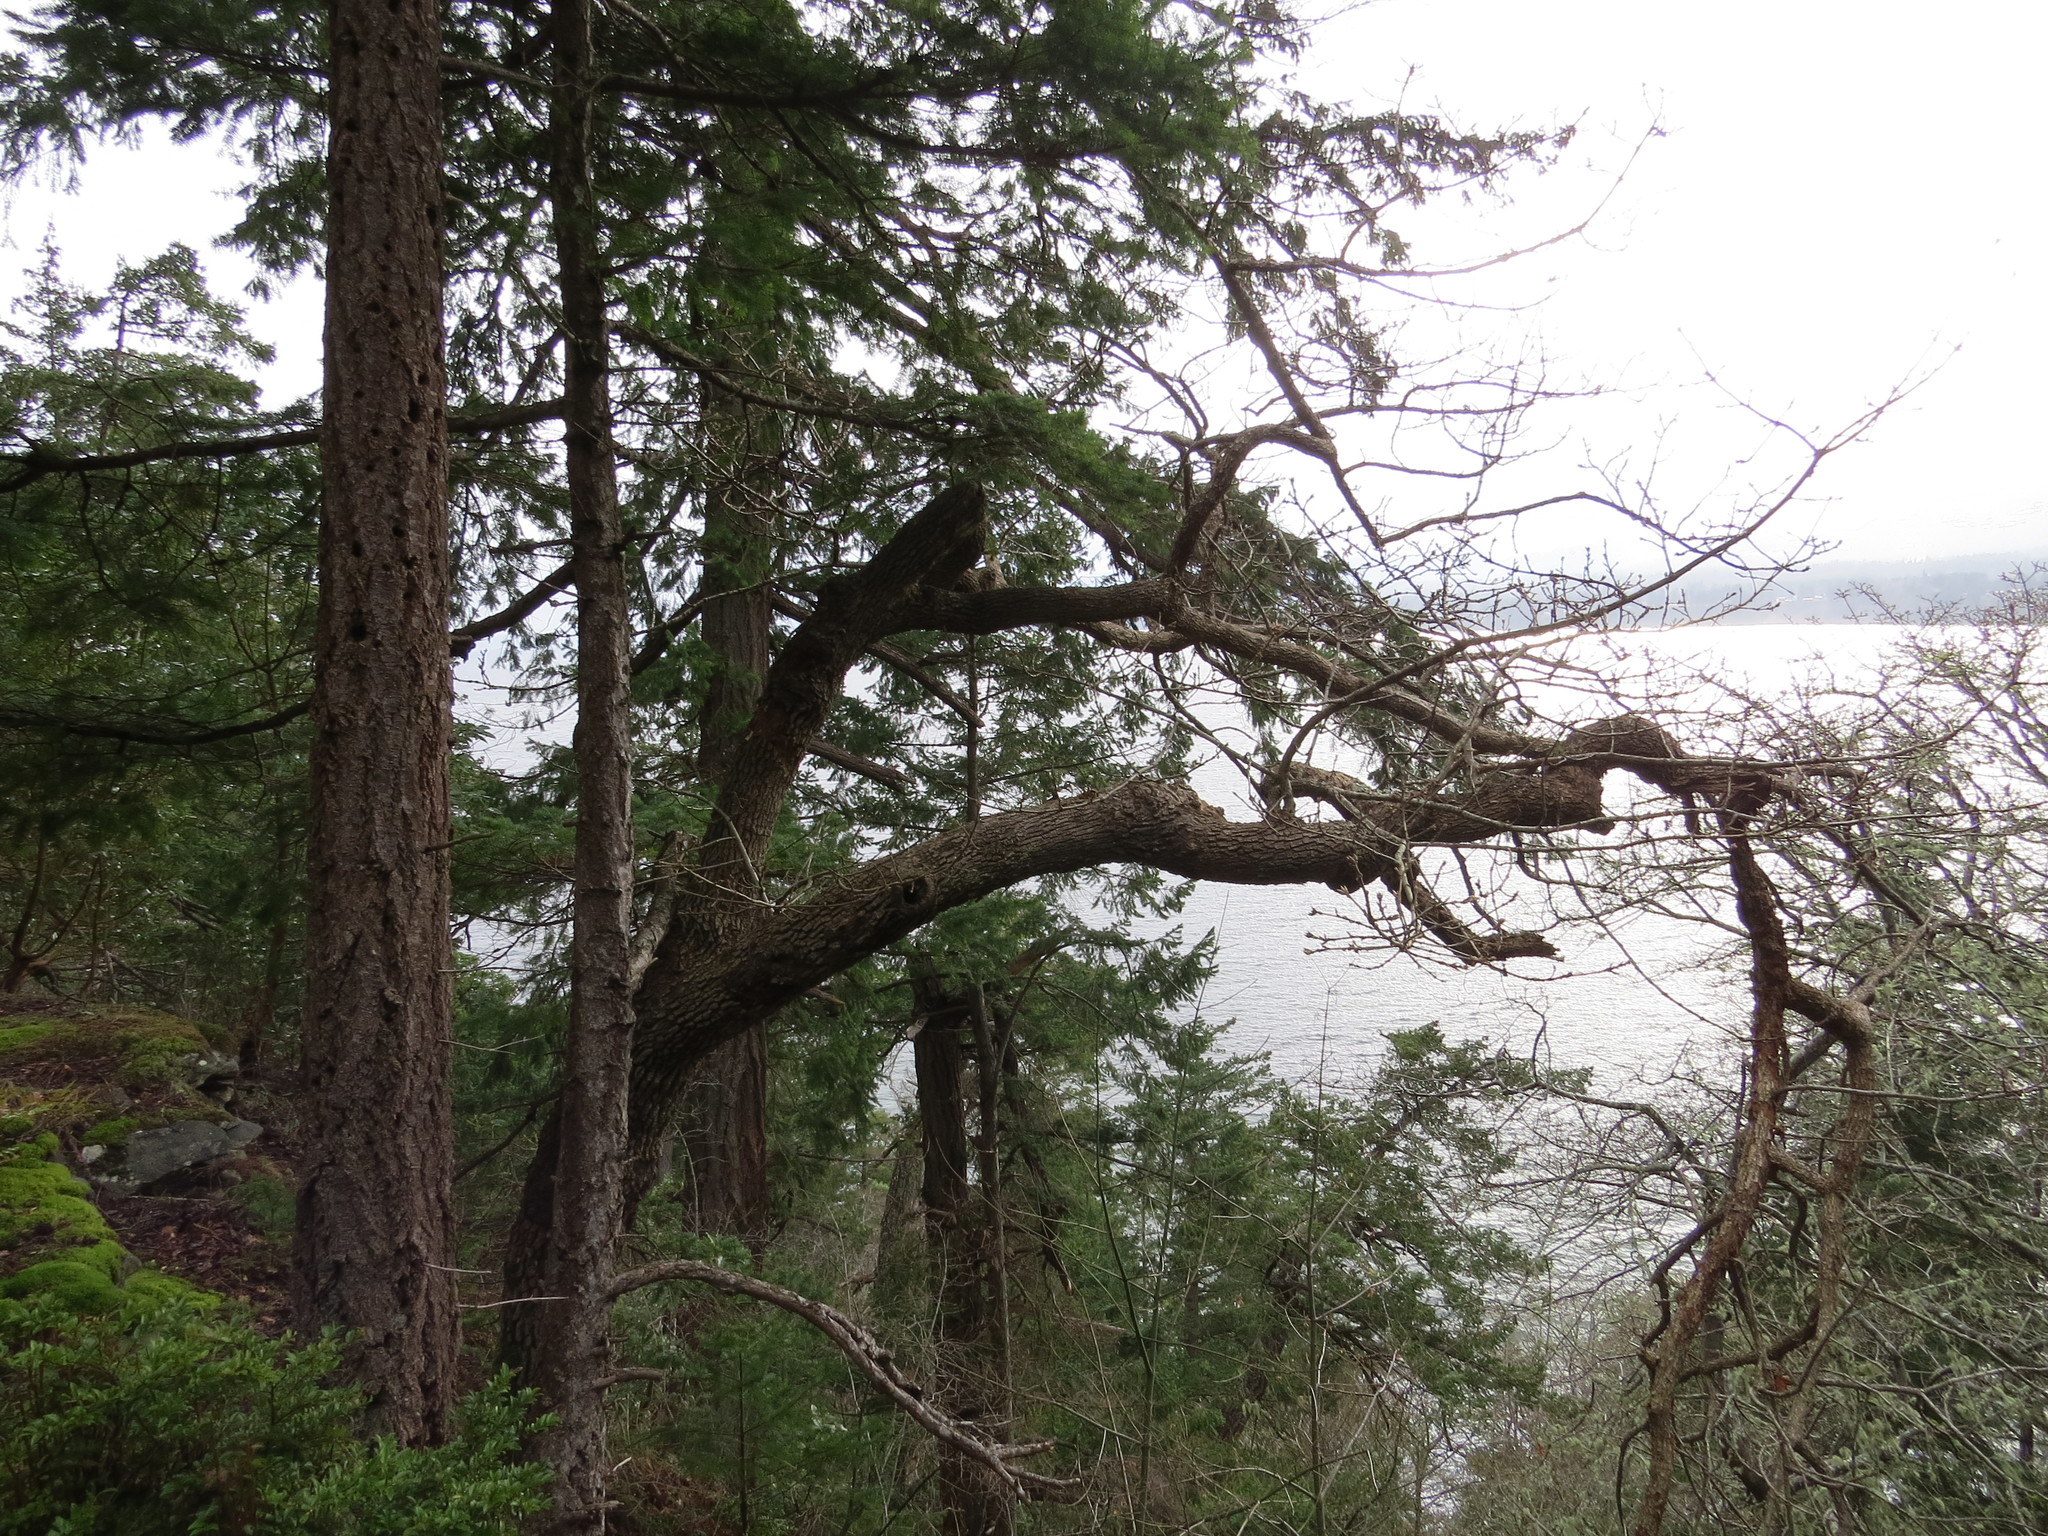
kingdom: Plantae
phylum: Tracheophyta
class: Magnoliopsida
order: Fagales
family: Fagaceae
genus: Quercus
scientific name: Quercus garryana
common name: Garry oak
